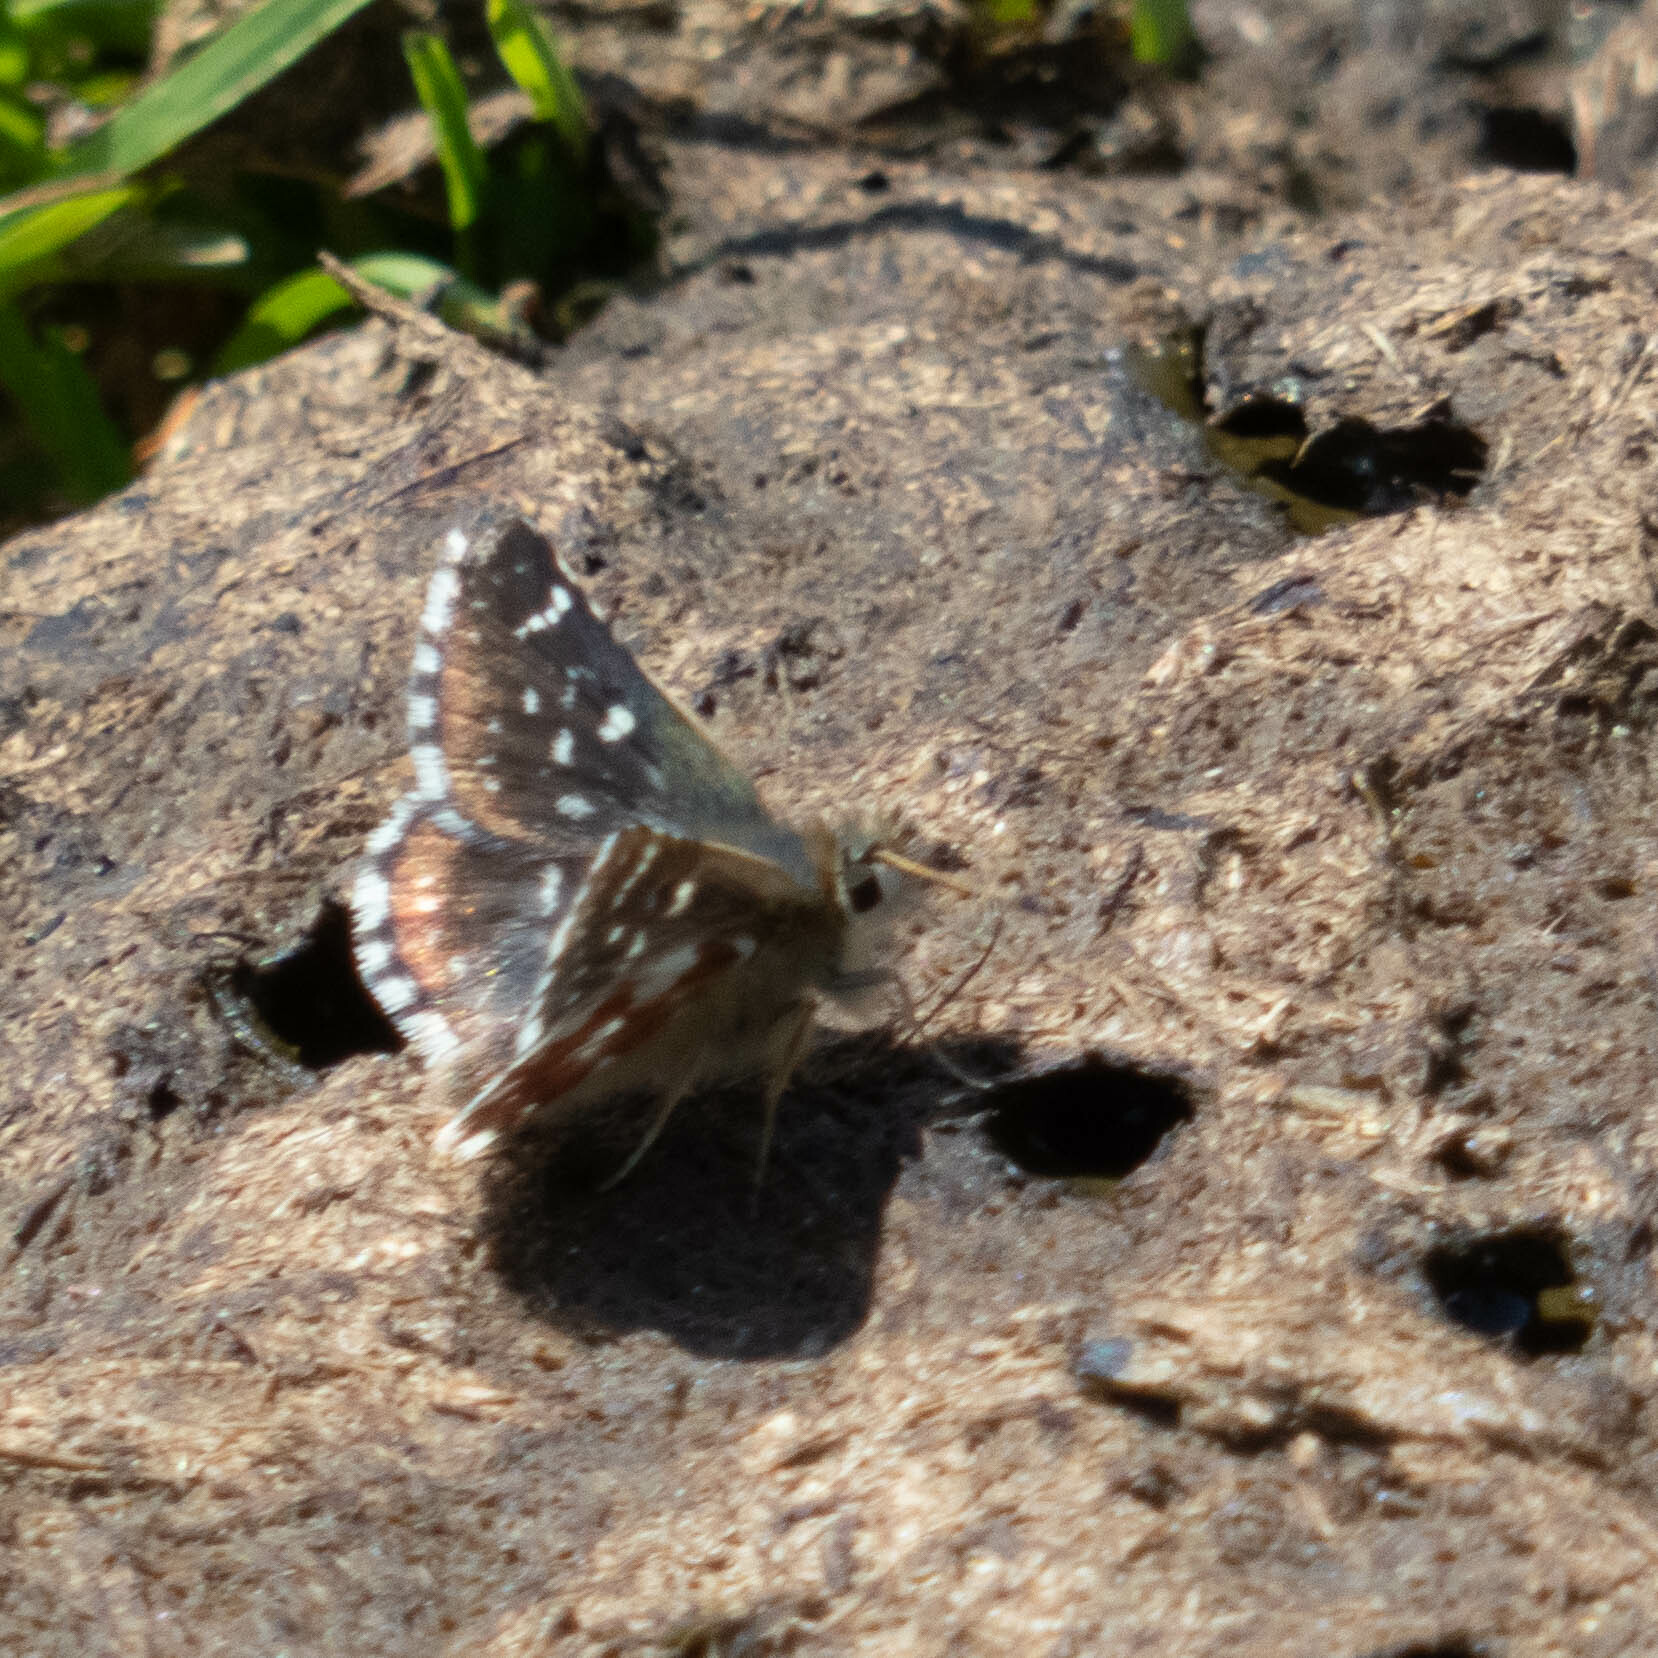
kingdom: Animalia
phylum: Arthropoda
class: Insecta
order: Lepidoptera
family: Hesperiidae
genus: Spialia
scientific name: Spialia sertorius
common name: Red underwing skipper
